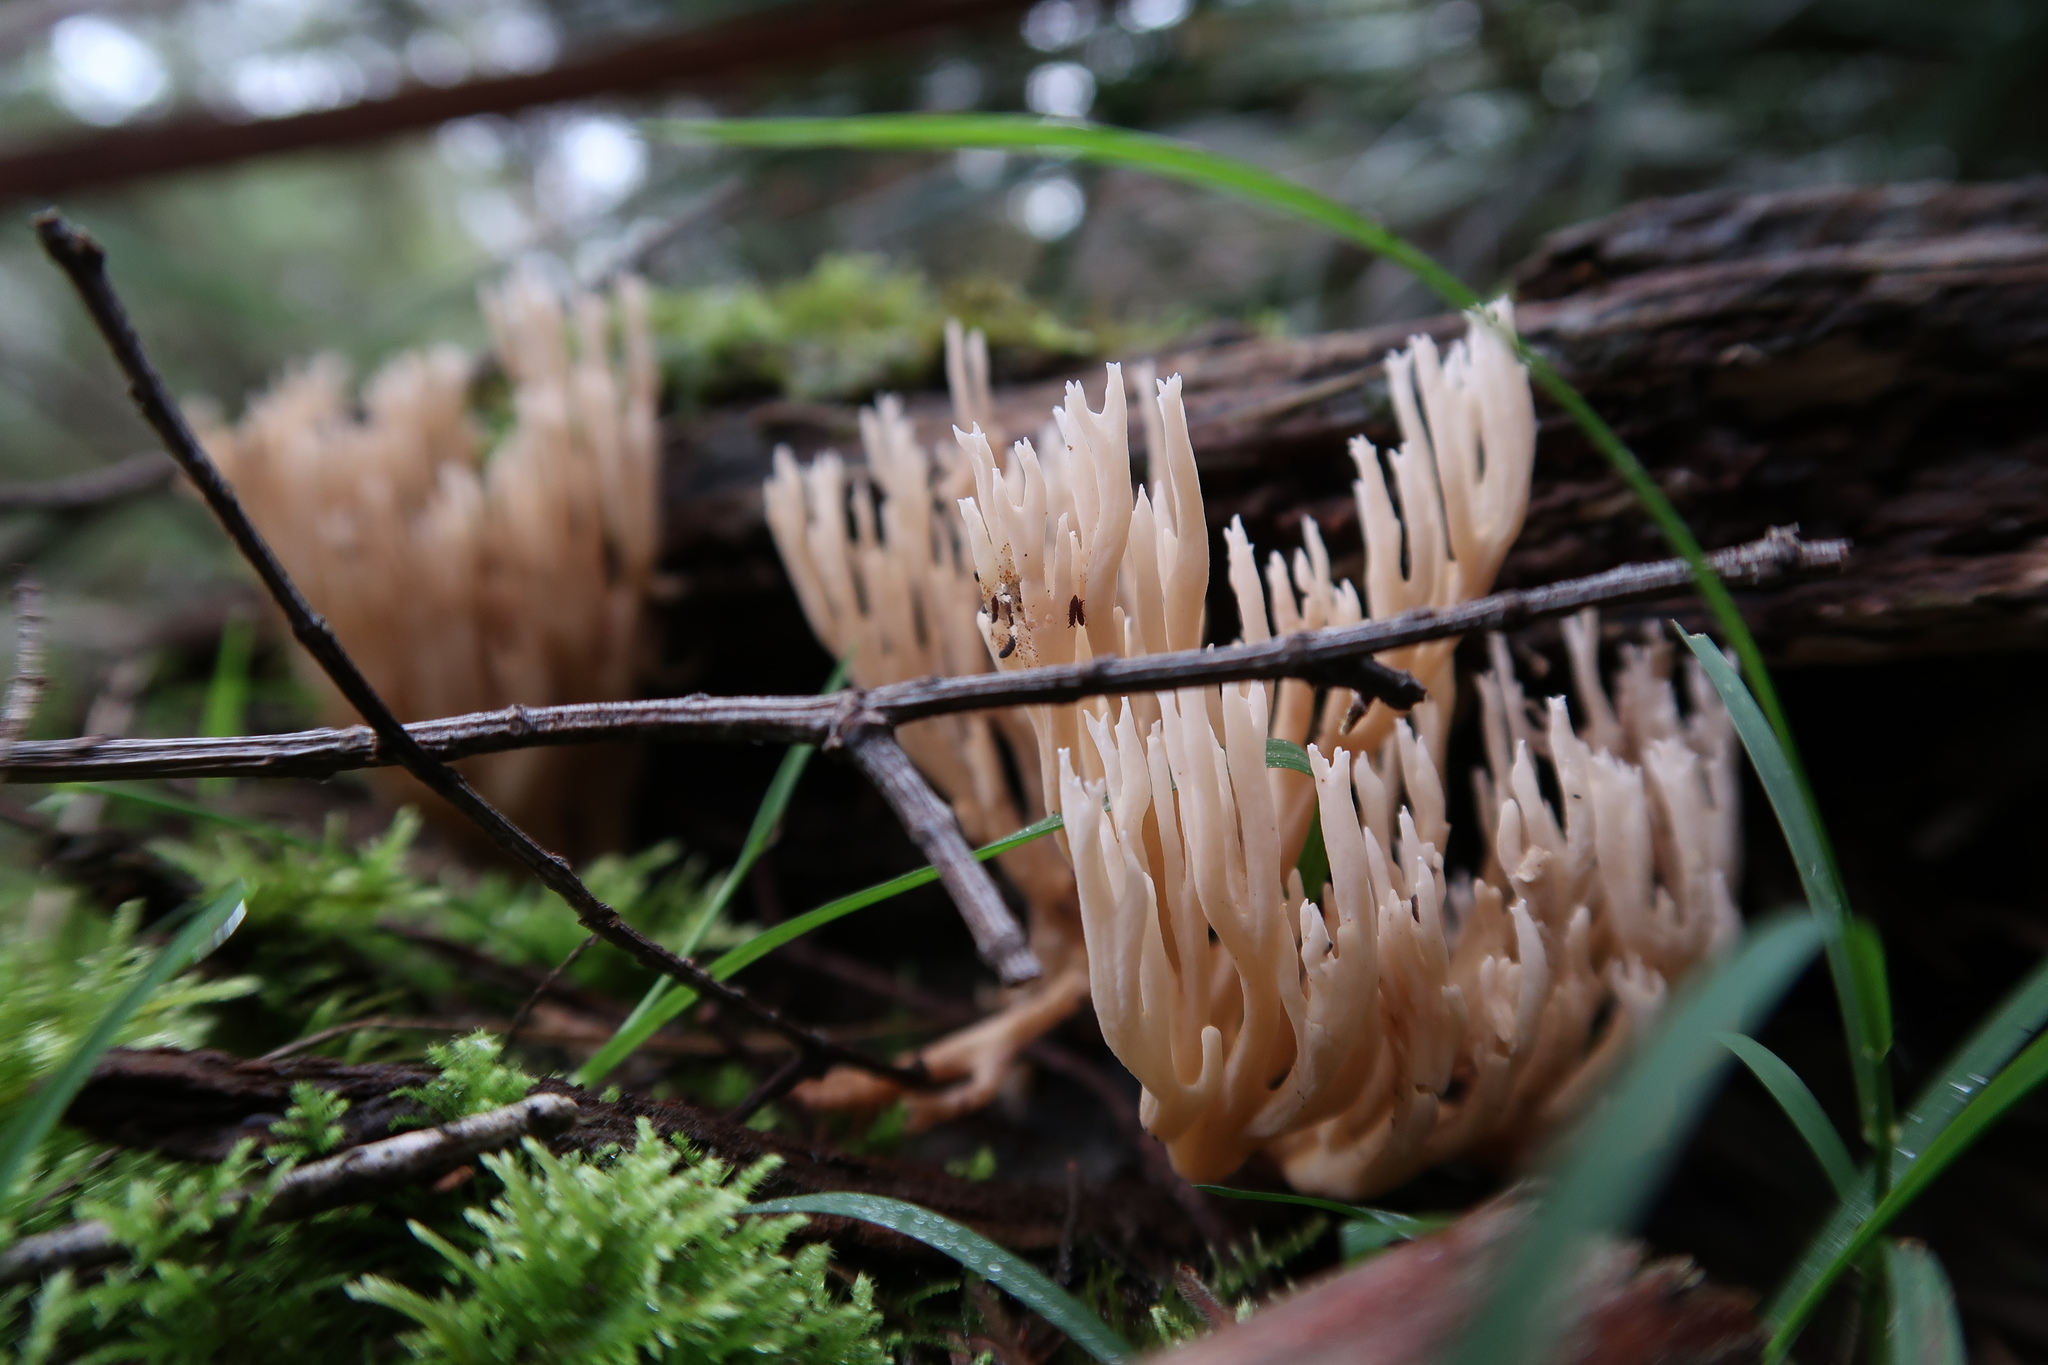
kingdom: Fungi
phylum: Basidiomycota
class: Agaricomycetes
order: Gomphales
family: Gomphaceae
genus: Ramaria
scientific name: Ramaria filicicola
